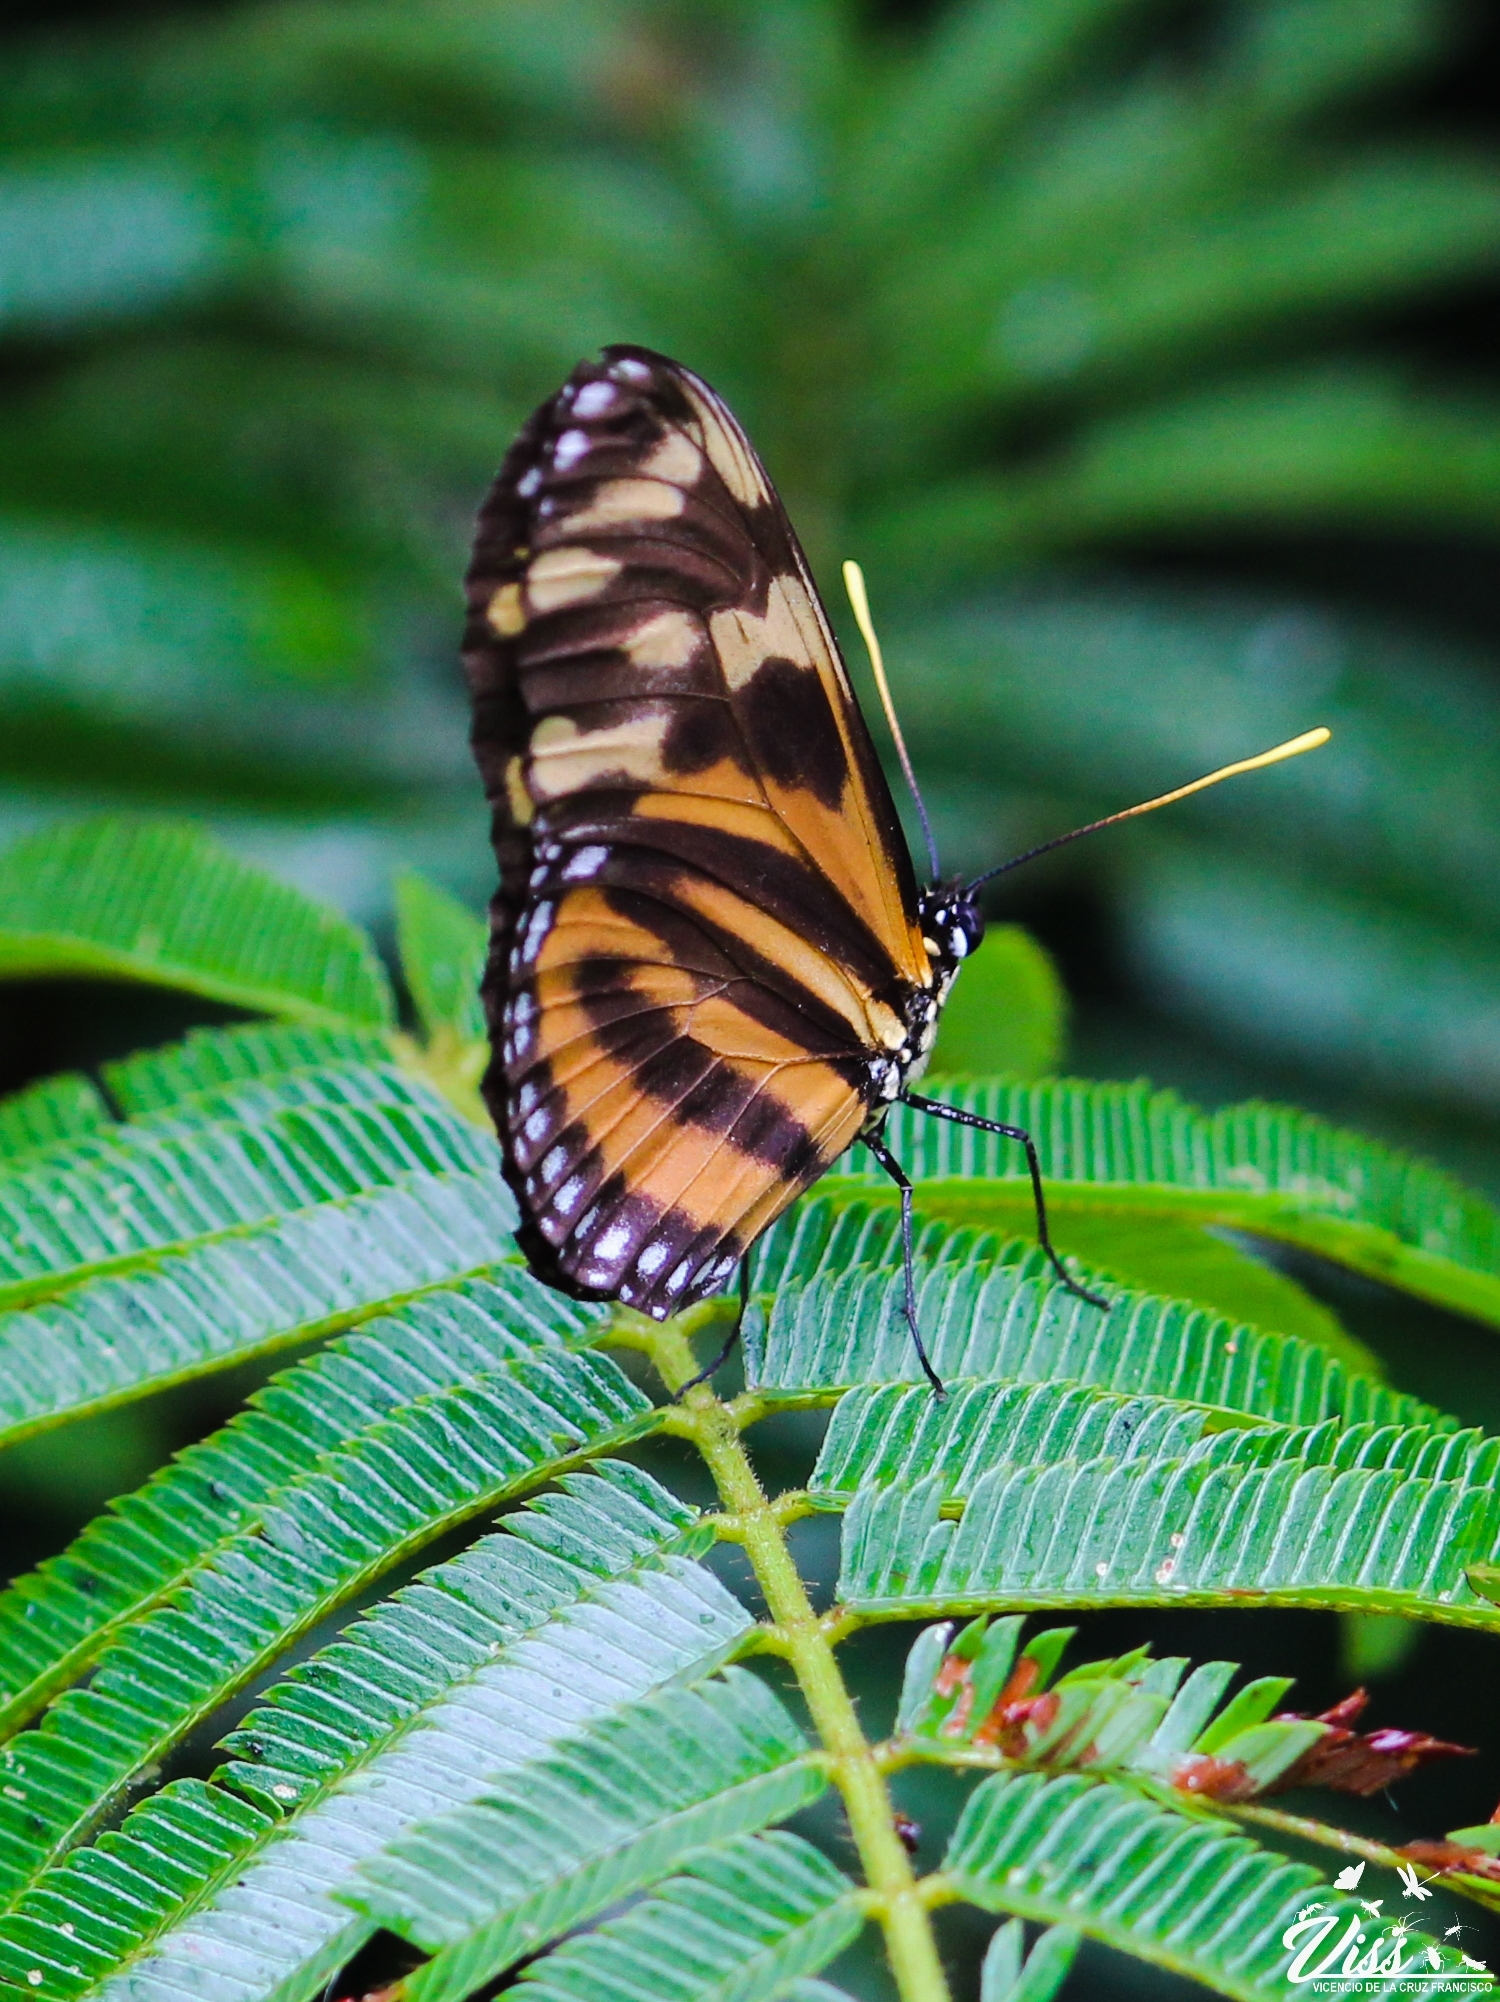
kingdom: Animalia
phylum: Arthropoda
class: Insecta
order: Lepidoptera
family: Nymphalidae
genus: Eueides
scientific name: Eueides isabella
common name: Isabella's longwing
